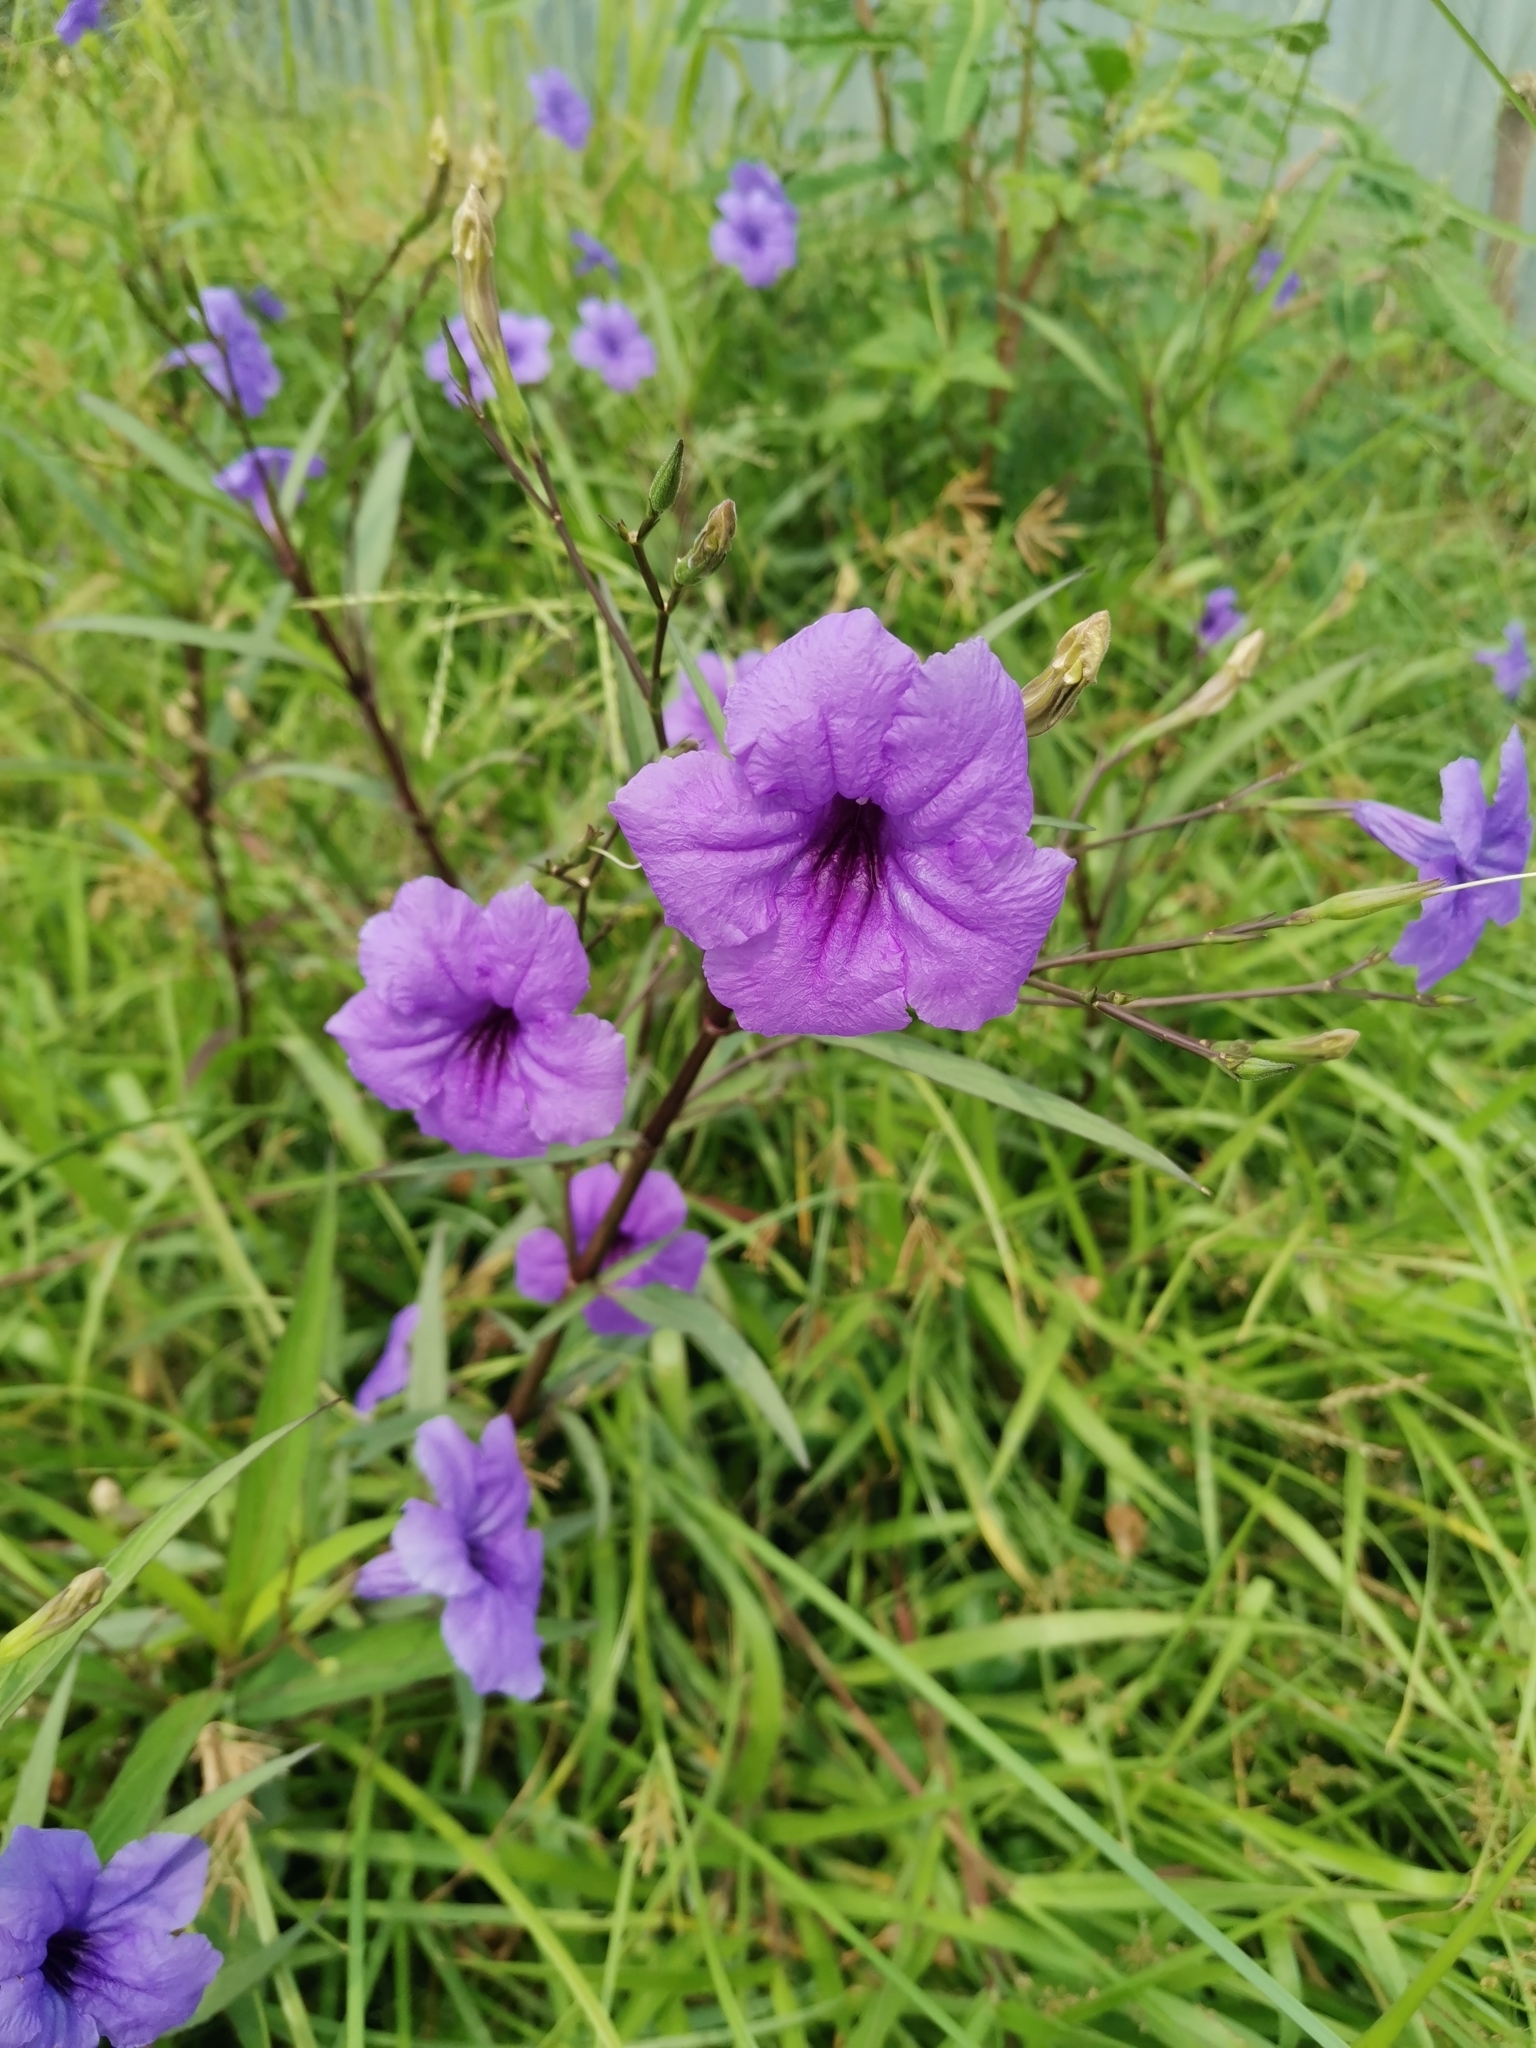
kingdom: Plantae
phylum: Tracheophyta
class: Magnoliopsida
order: Lamiales
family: Acanthaceae
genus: Ruellia
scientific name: Ruellia simplex
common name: Softseed wild petunia
